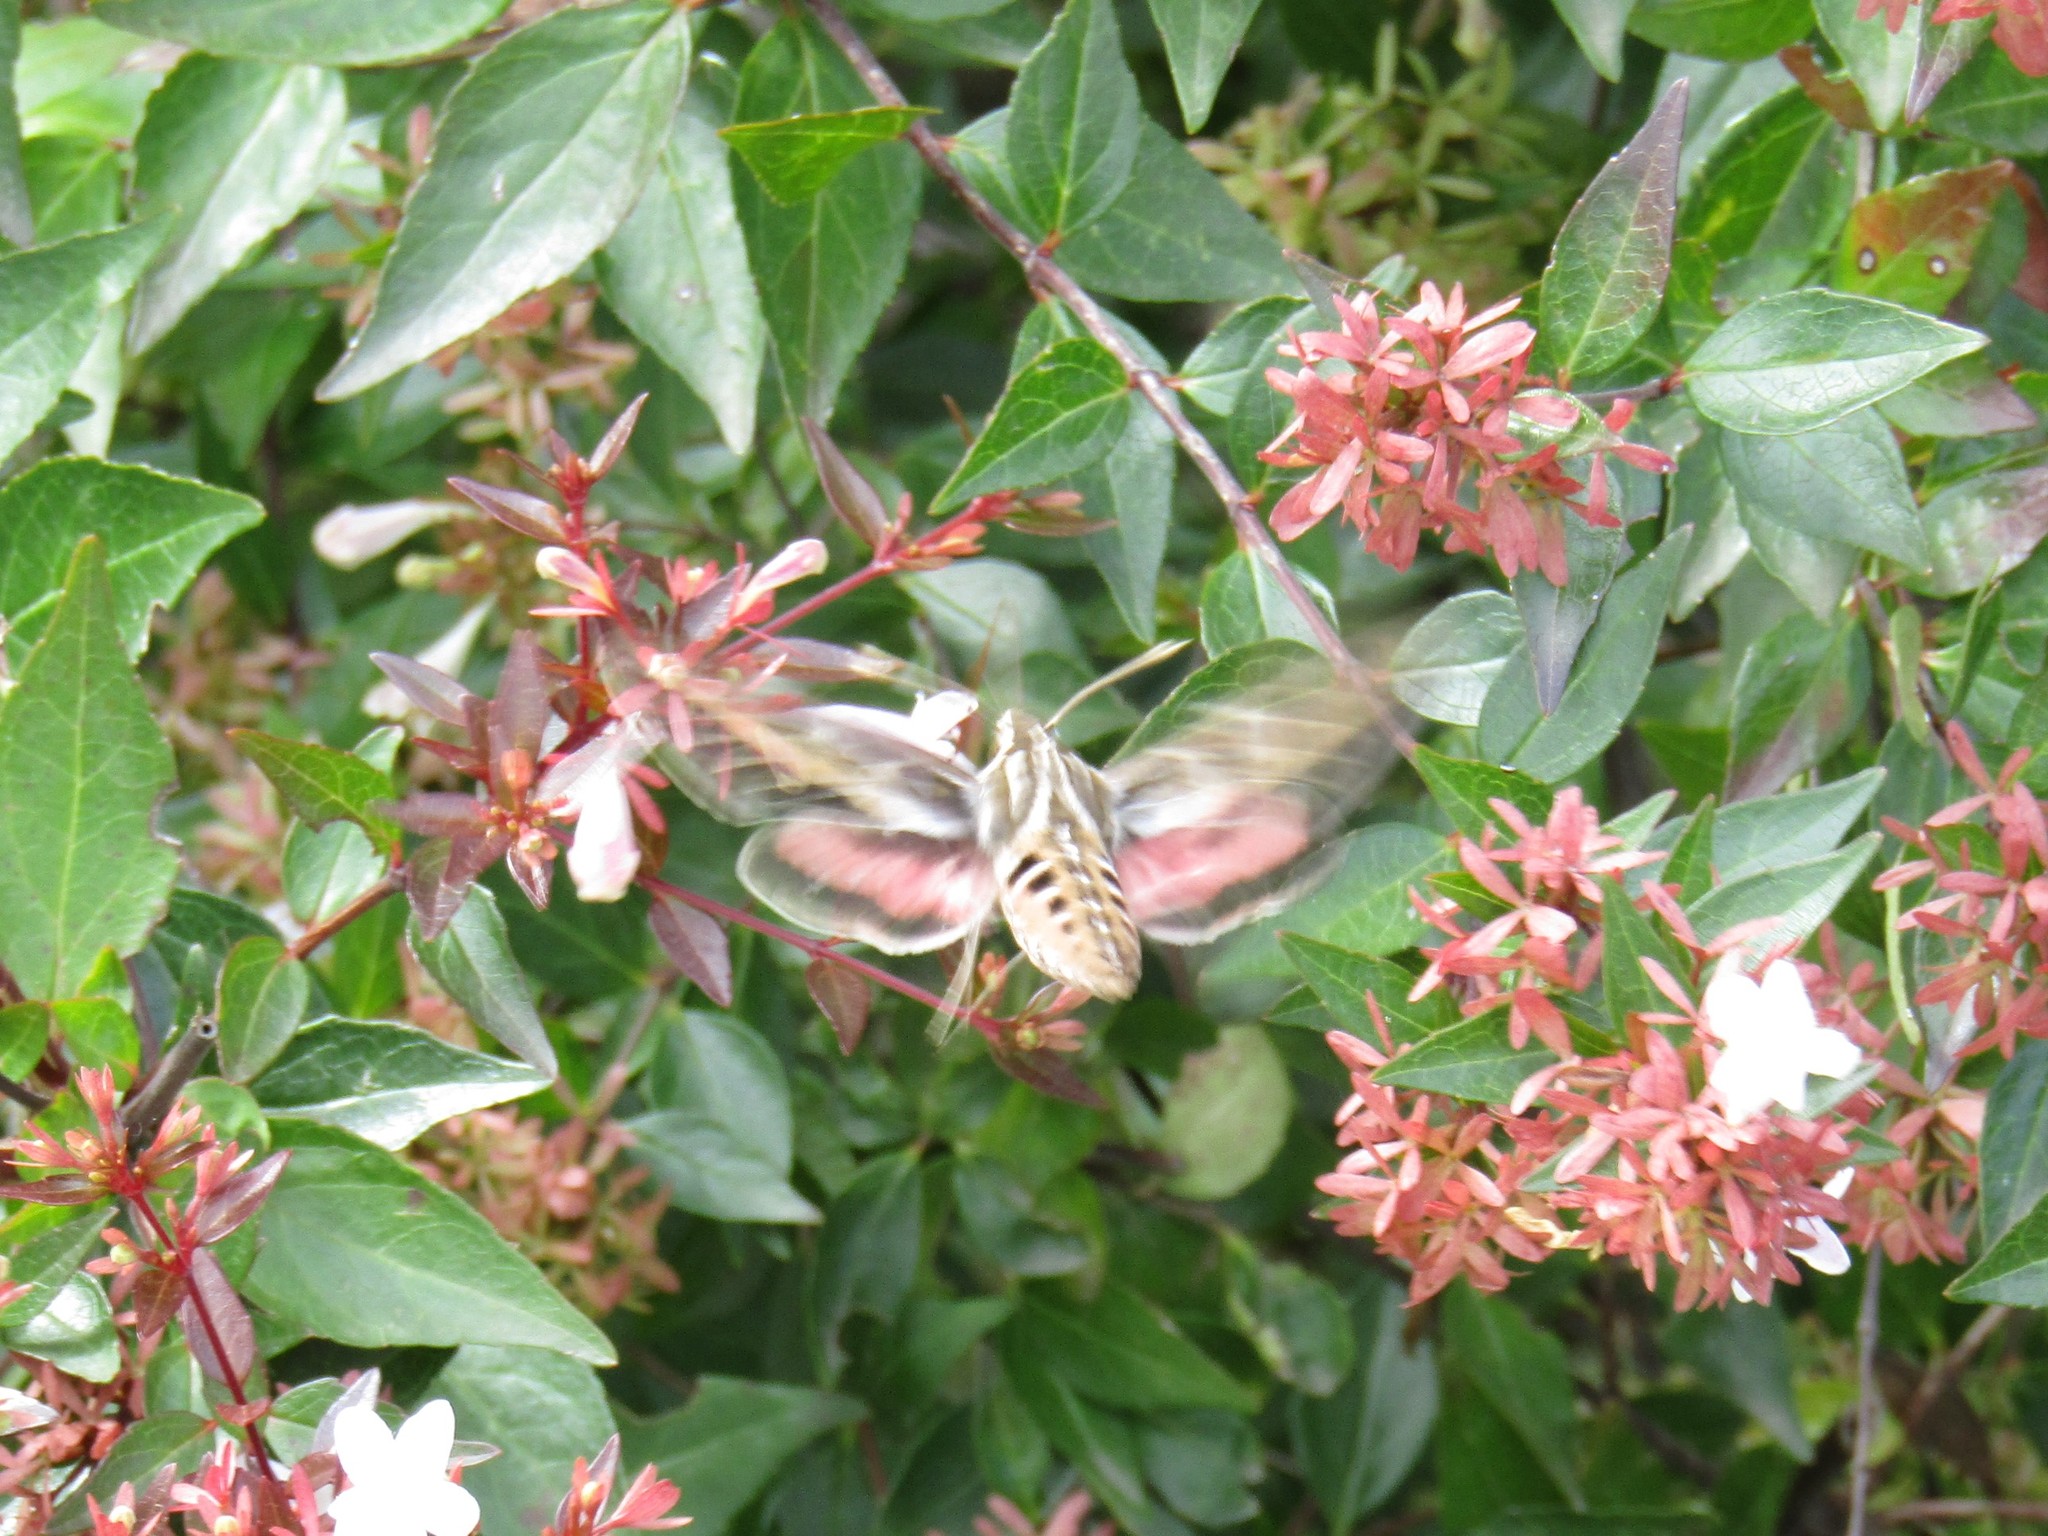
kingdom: Animalia
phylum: Arthropoda
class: Insecta
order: Lepidoptera
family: Sphingidae
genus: Hyles
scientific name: Hyles lineata
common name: White-lined sphinx
